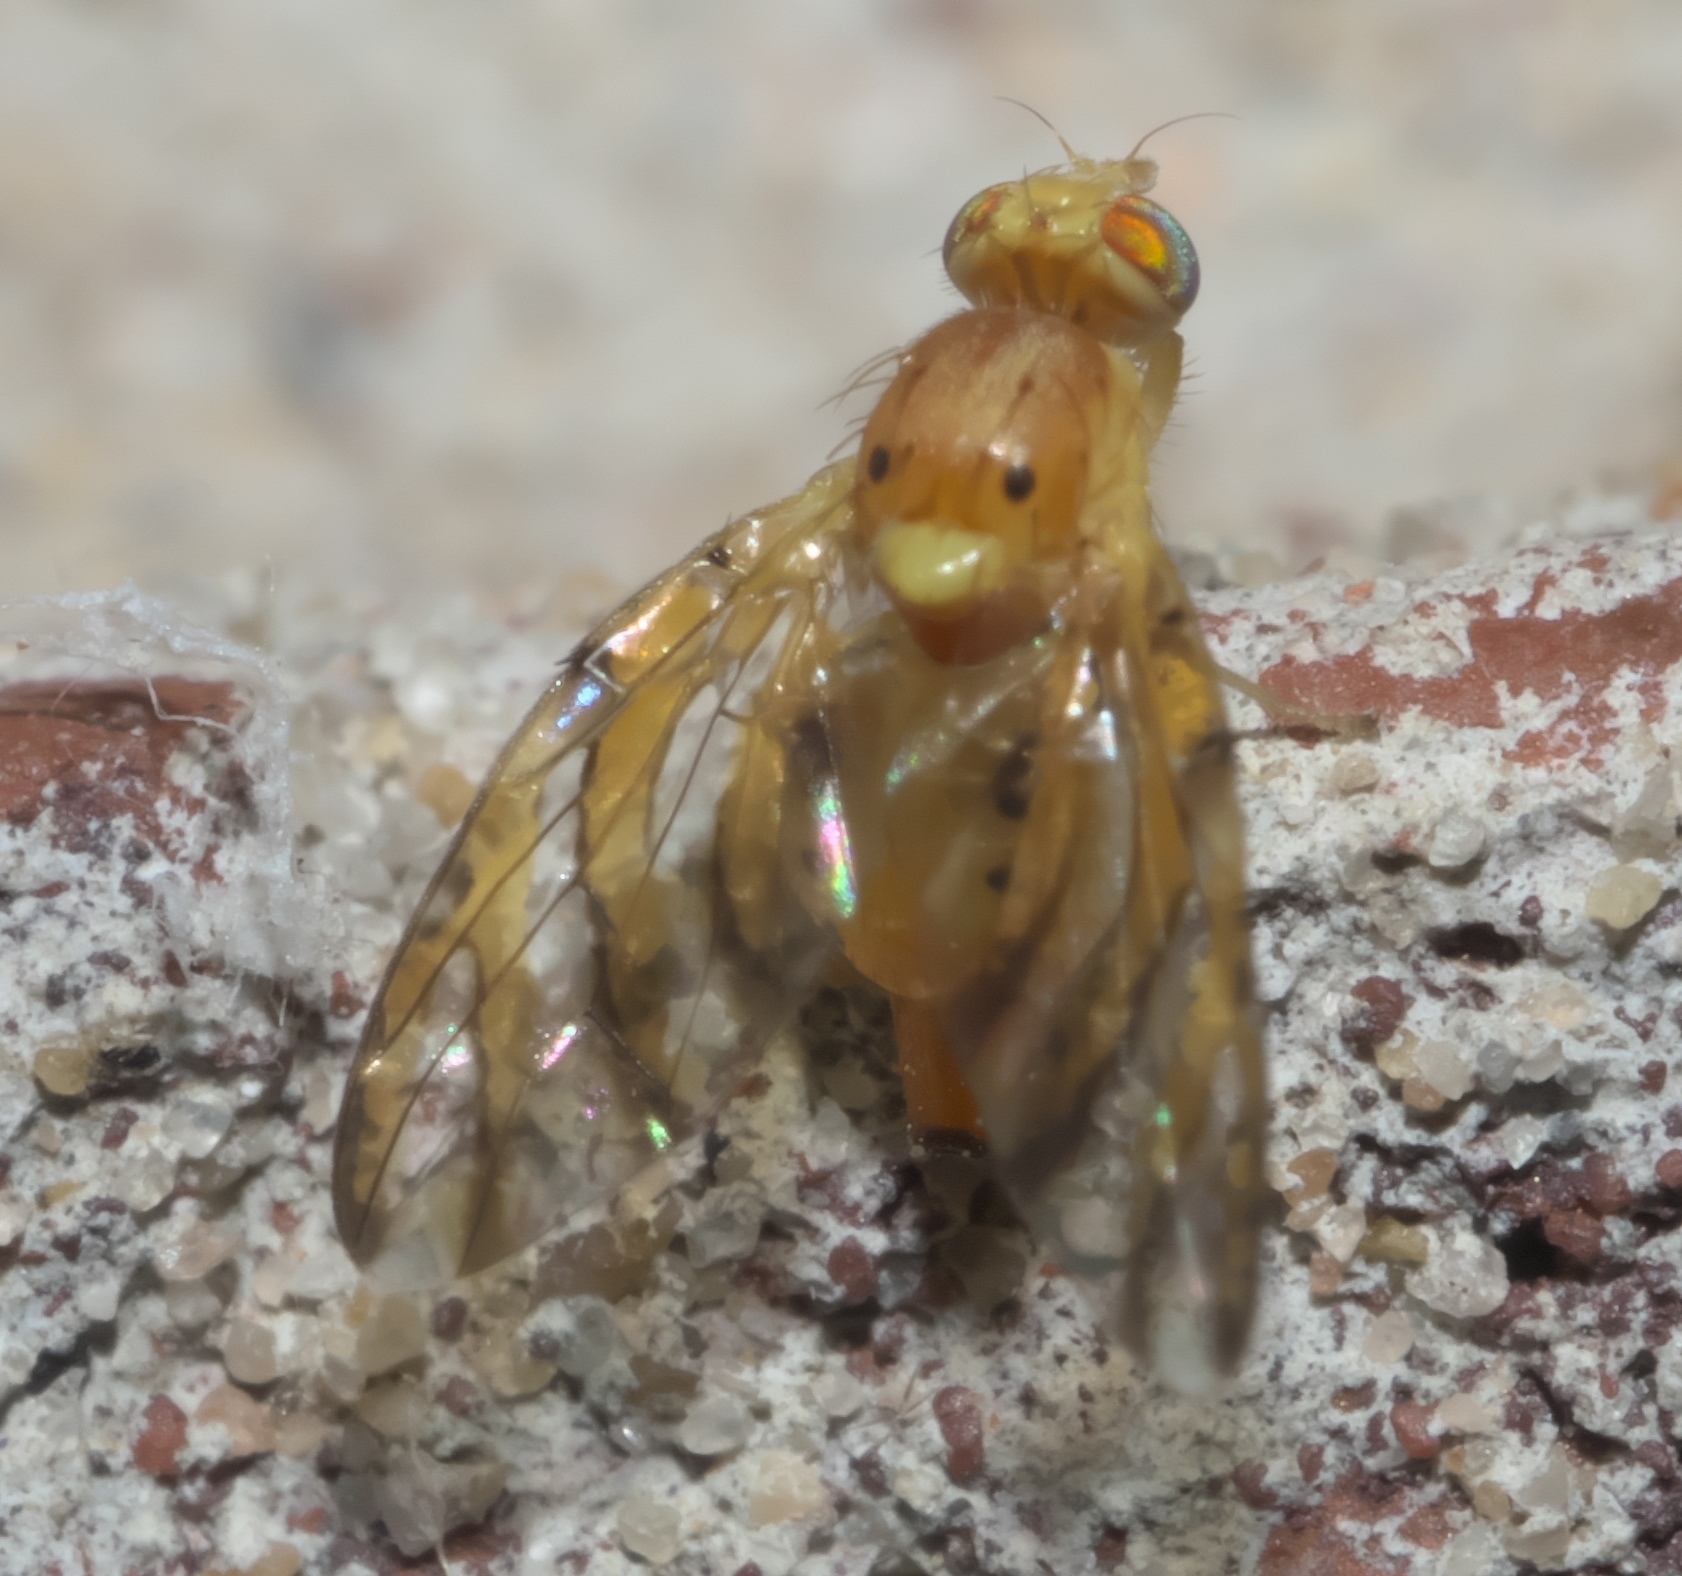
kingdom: Animalia
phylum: Arthropoda
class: Insecta
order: Diptera
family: Tephritidae
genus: Tomoplagia
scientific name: Tomoplagia obliqua
